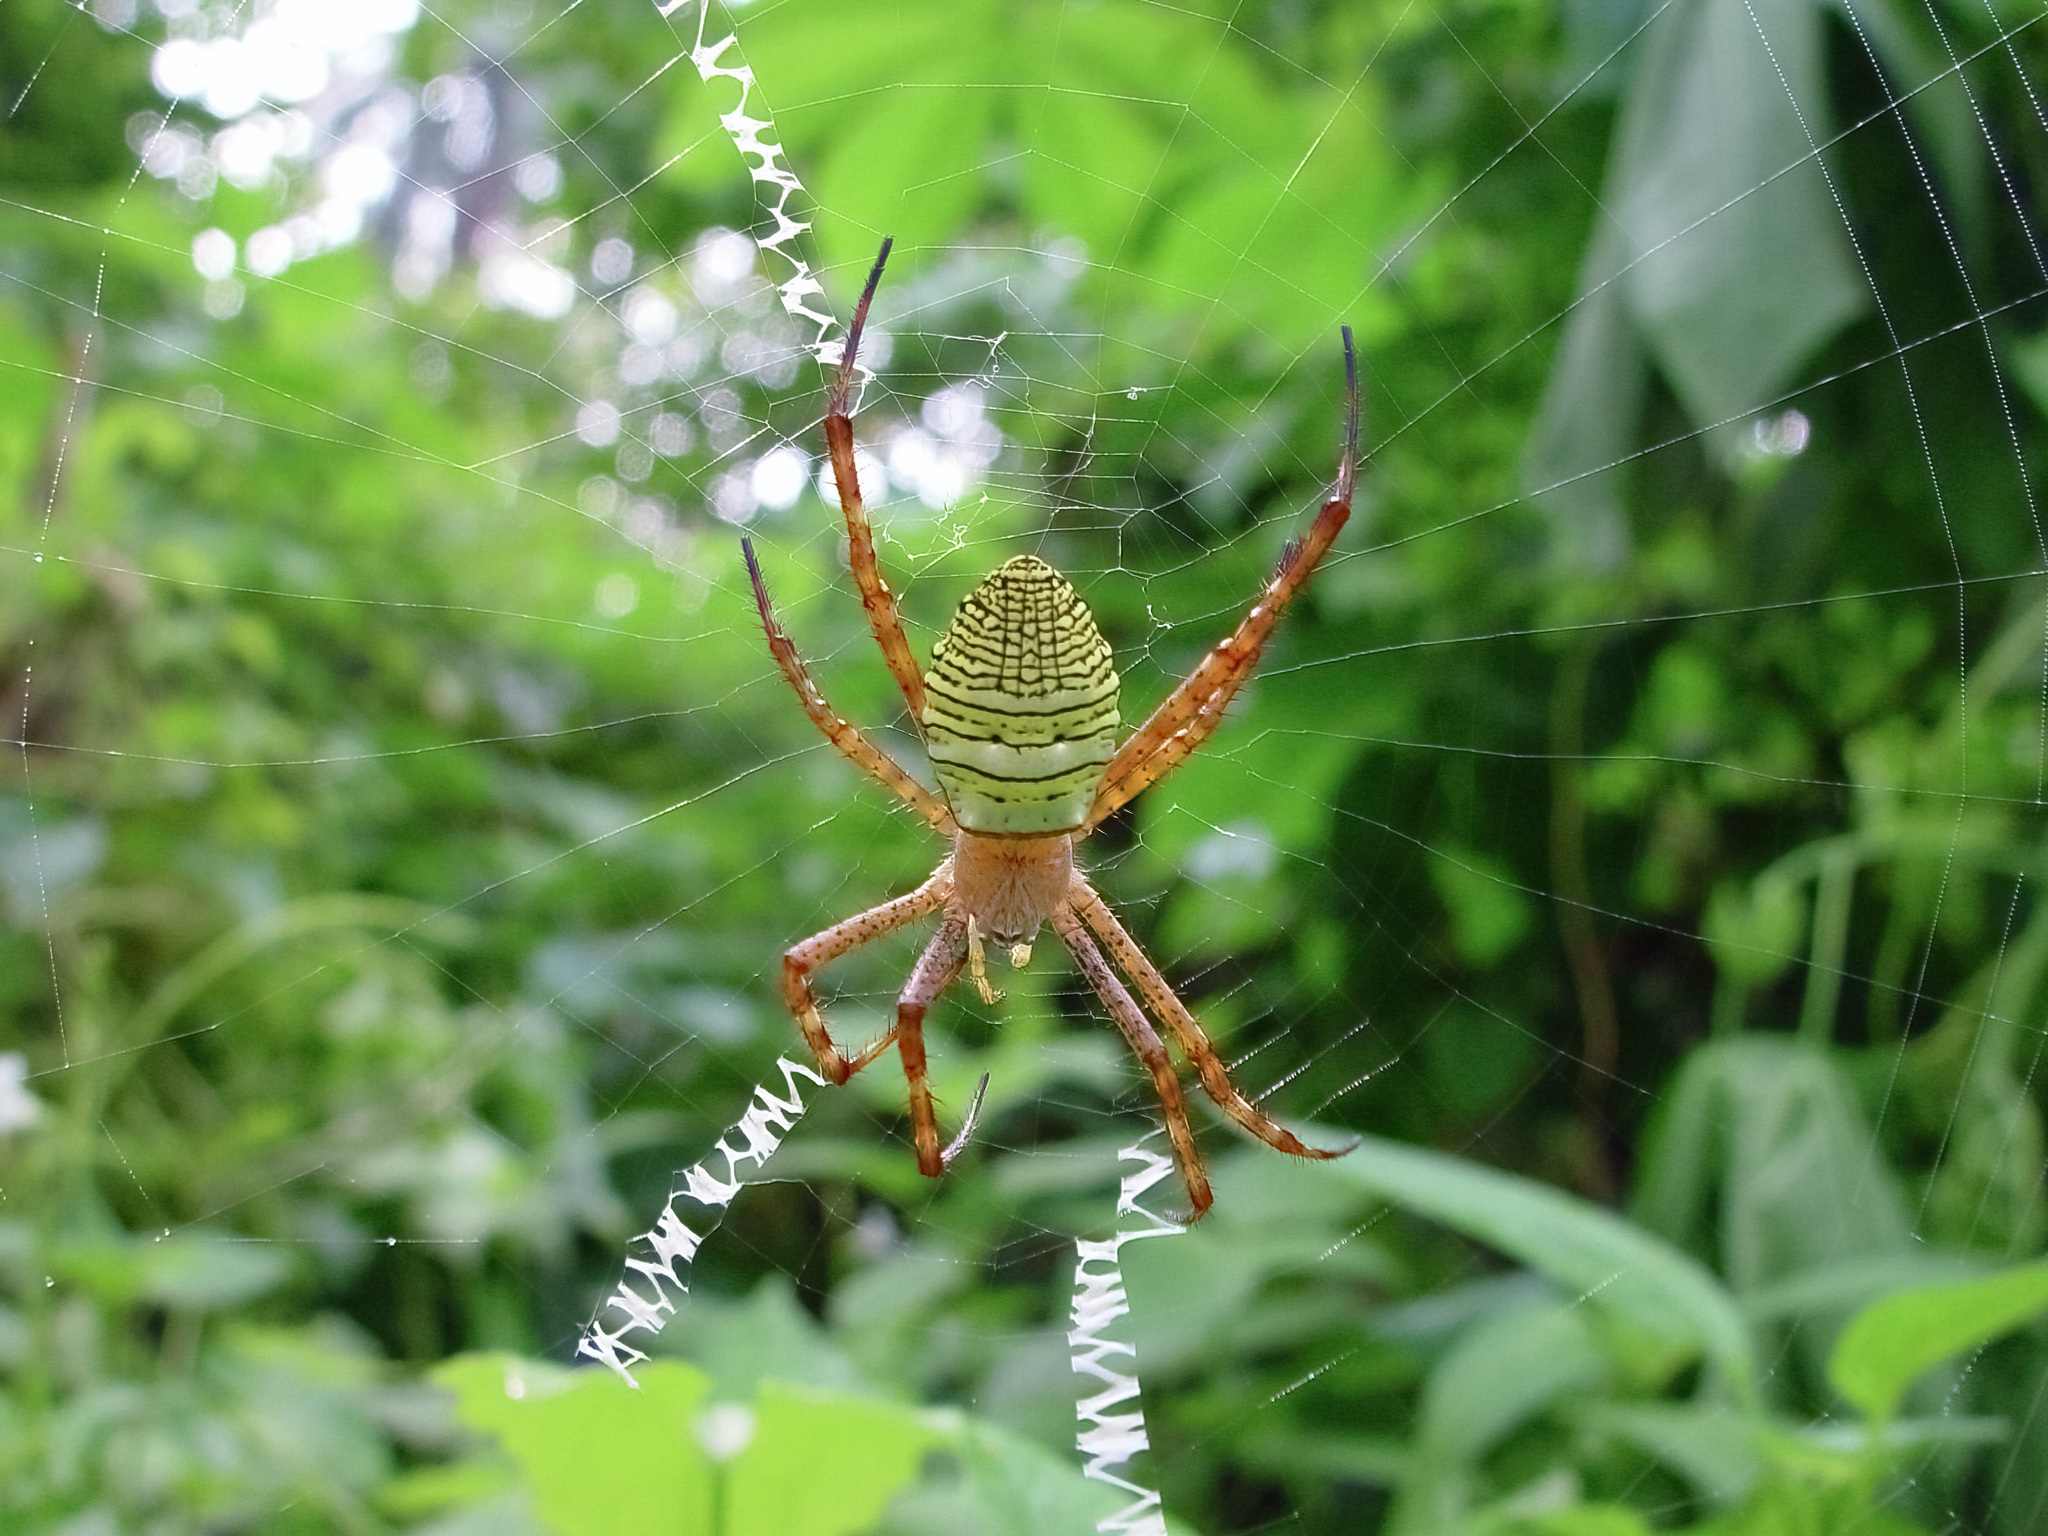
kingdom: Animalia
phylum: Arthropoda
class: Arachnida
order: Araneae
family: Araneidae
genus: Argiope
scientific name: Argiope aemula
